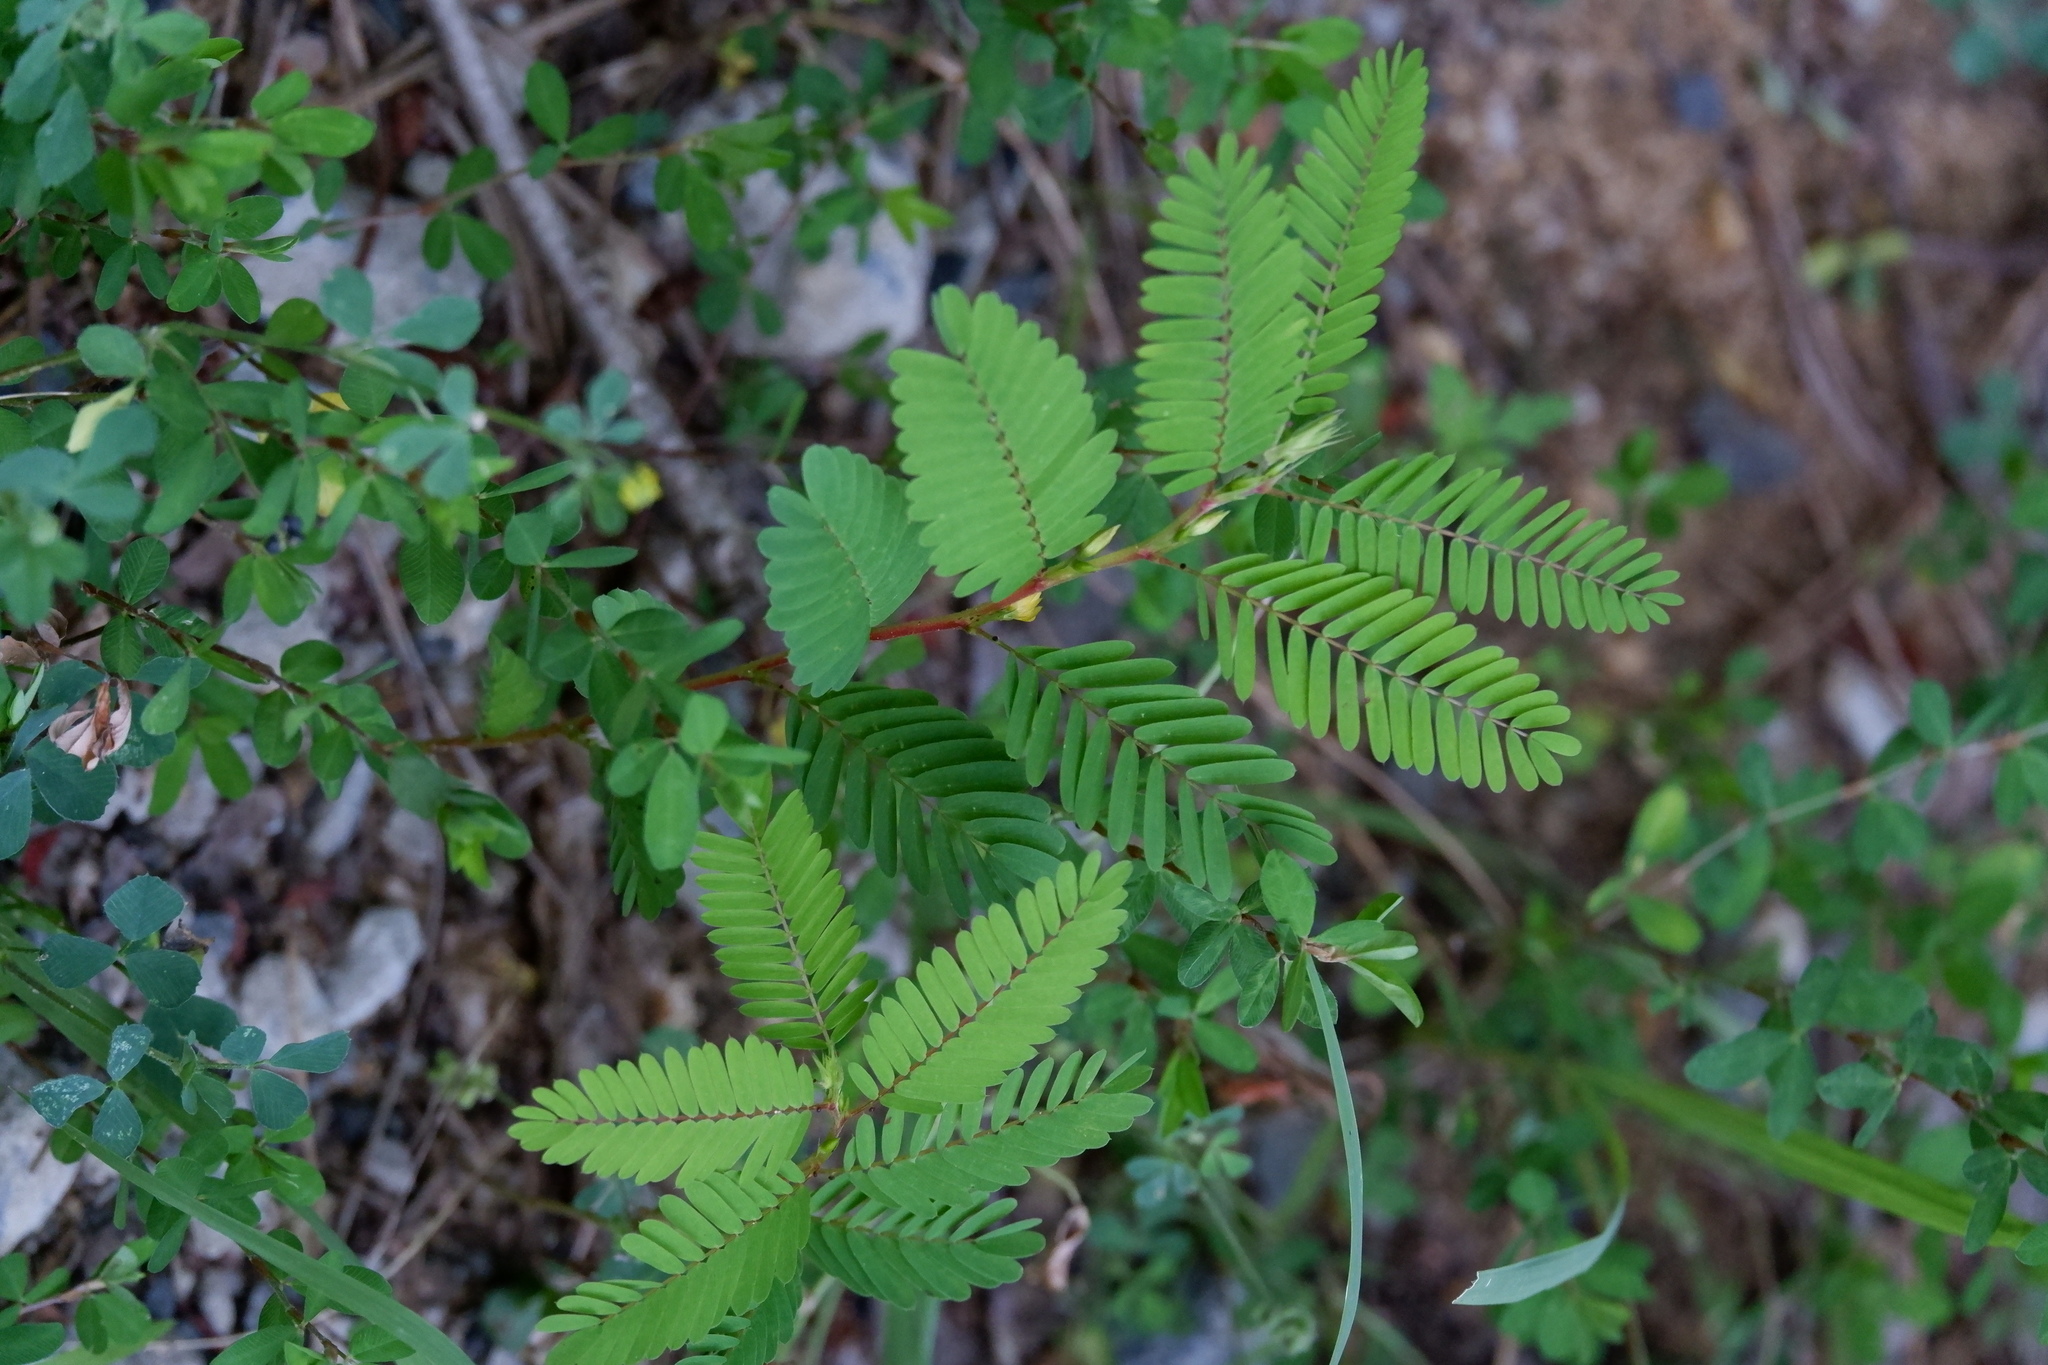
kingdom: Plantae
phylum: Tracheophyta
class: Magnoliopsida
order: Fabales
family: Fabaceae
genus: Chamaecrista
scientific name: Chamaecrista nictitans
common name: Sensitive cassia
